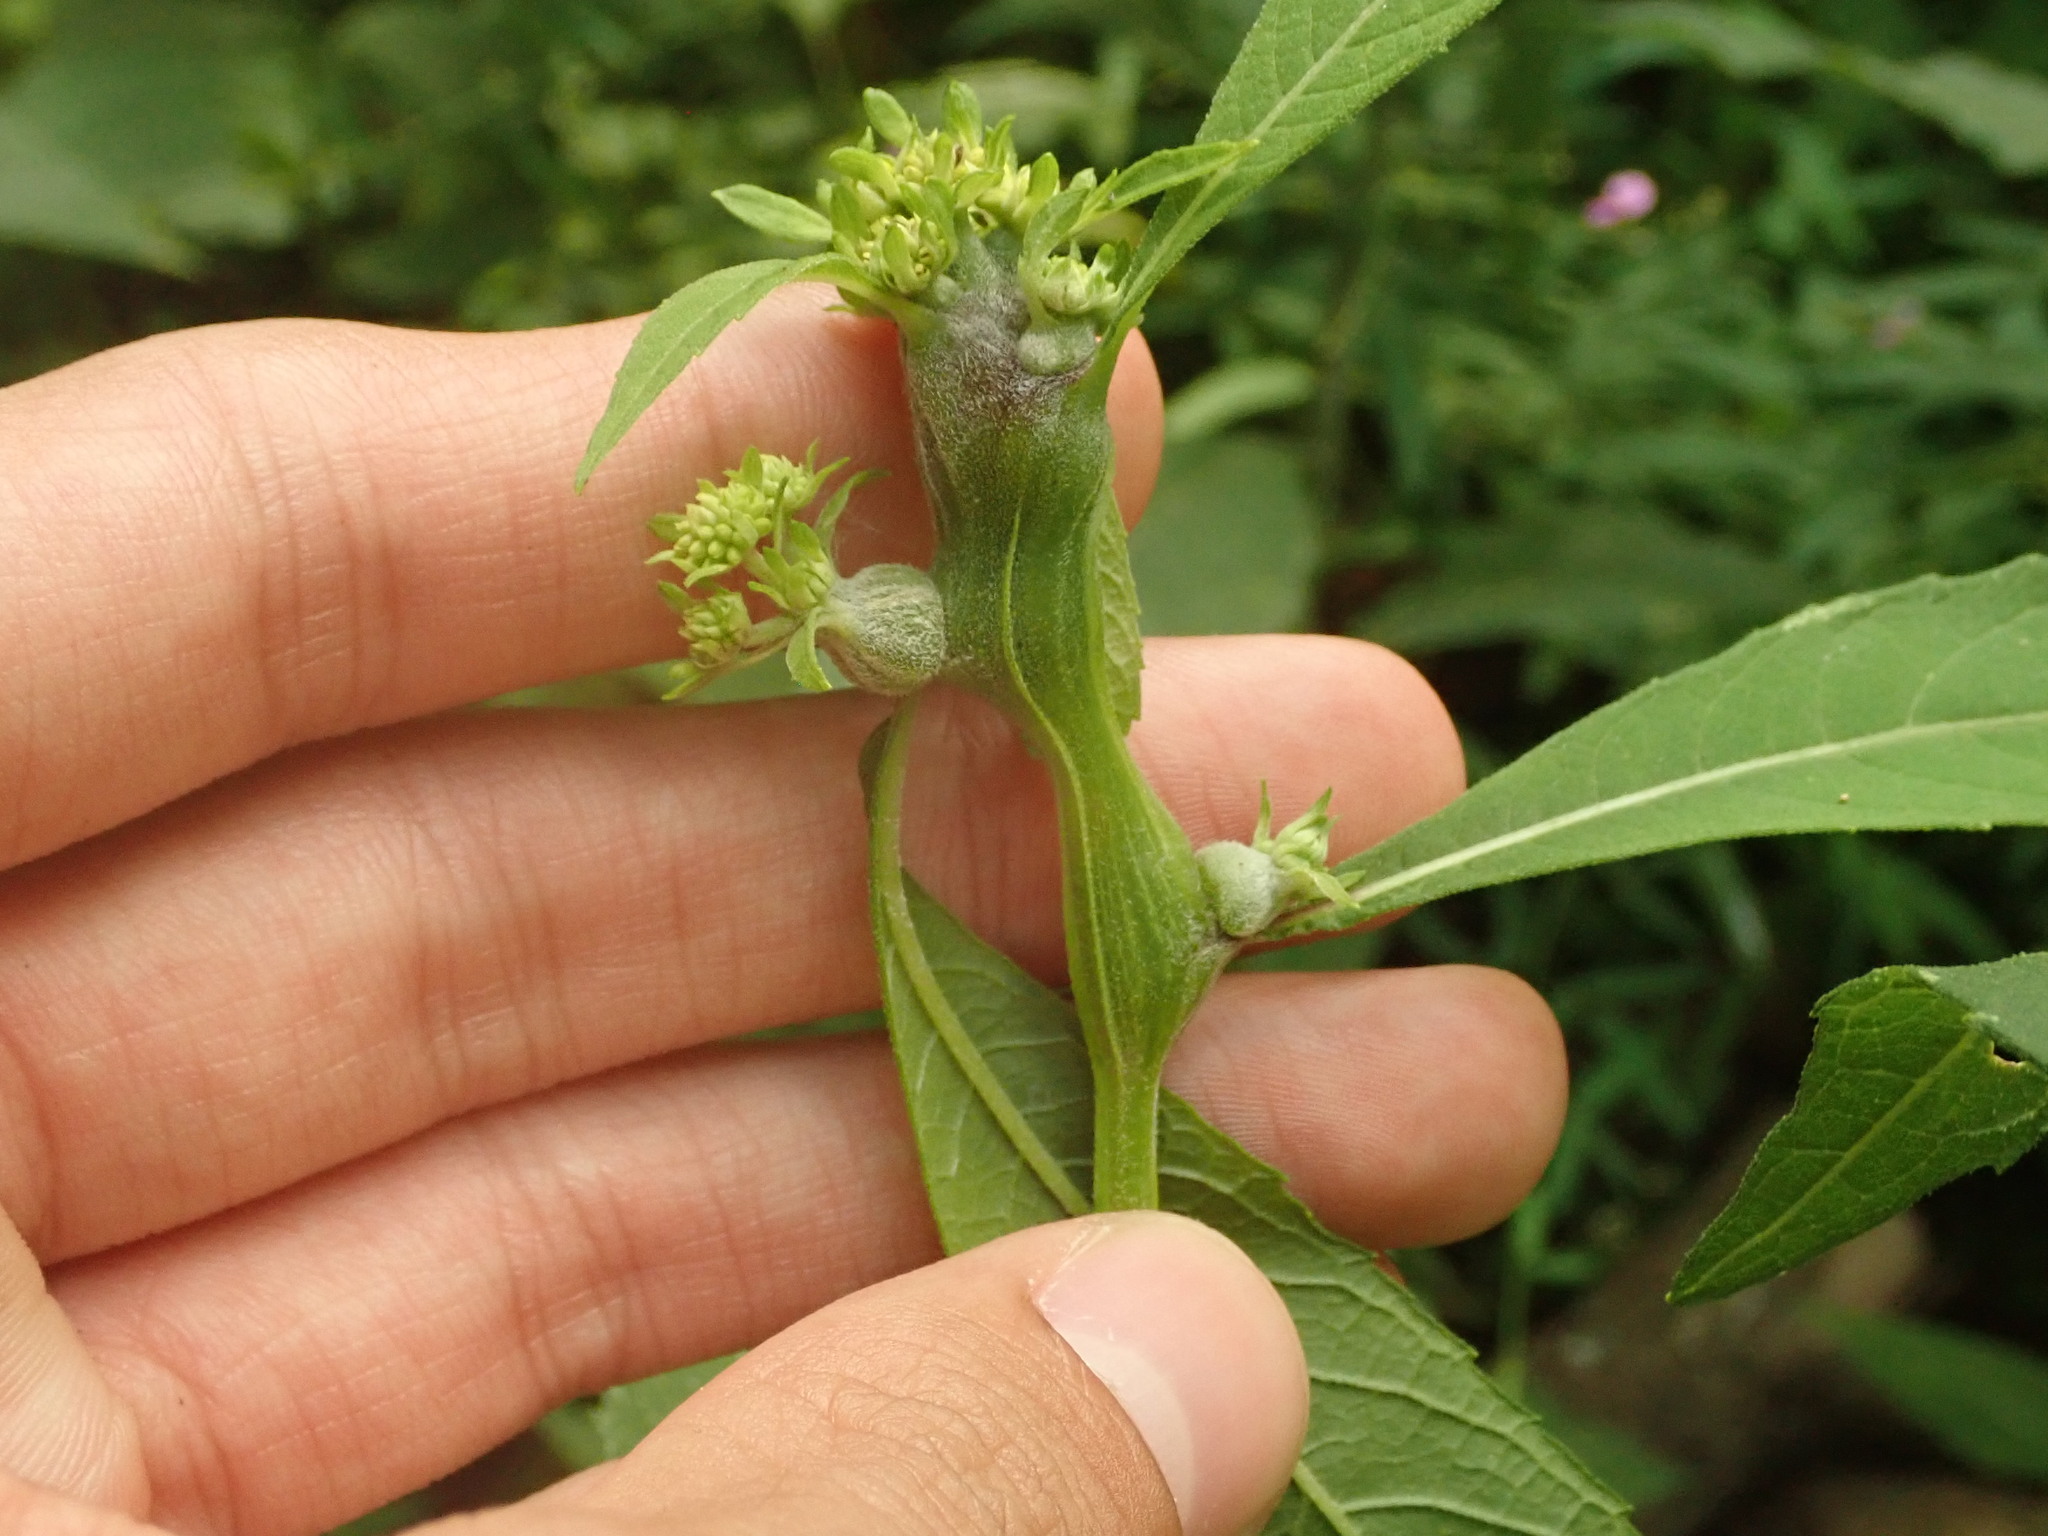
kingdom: Animalia
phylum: Arthropoda
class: Insecta
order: Diptera
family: Cecidomyiidae
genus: Neolasioptera
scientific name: Neolasioptera verbesinae
